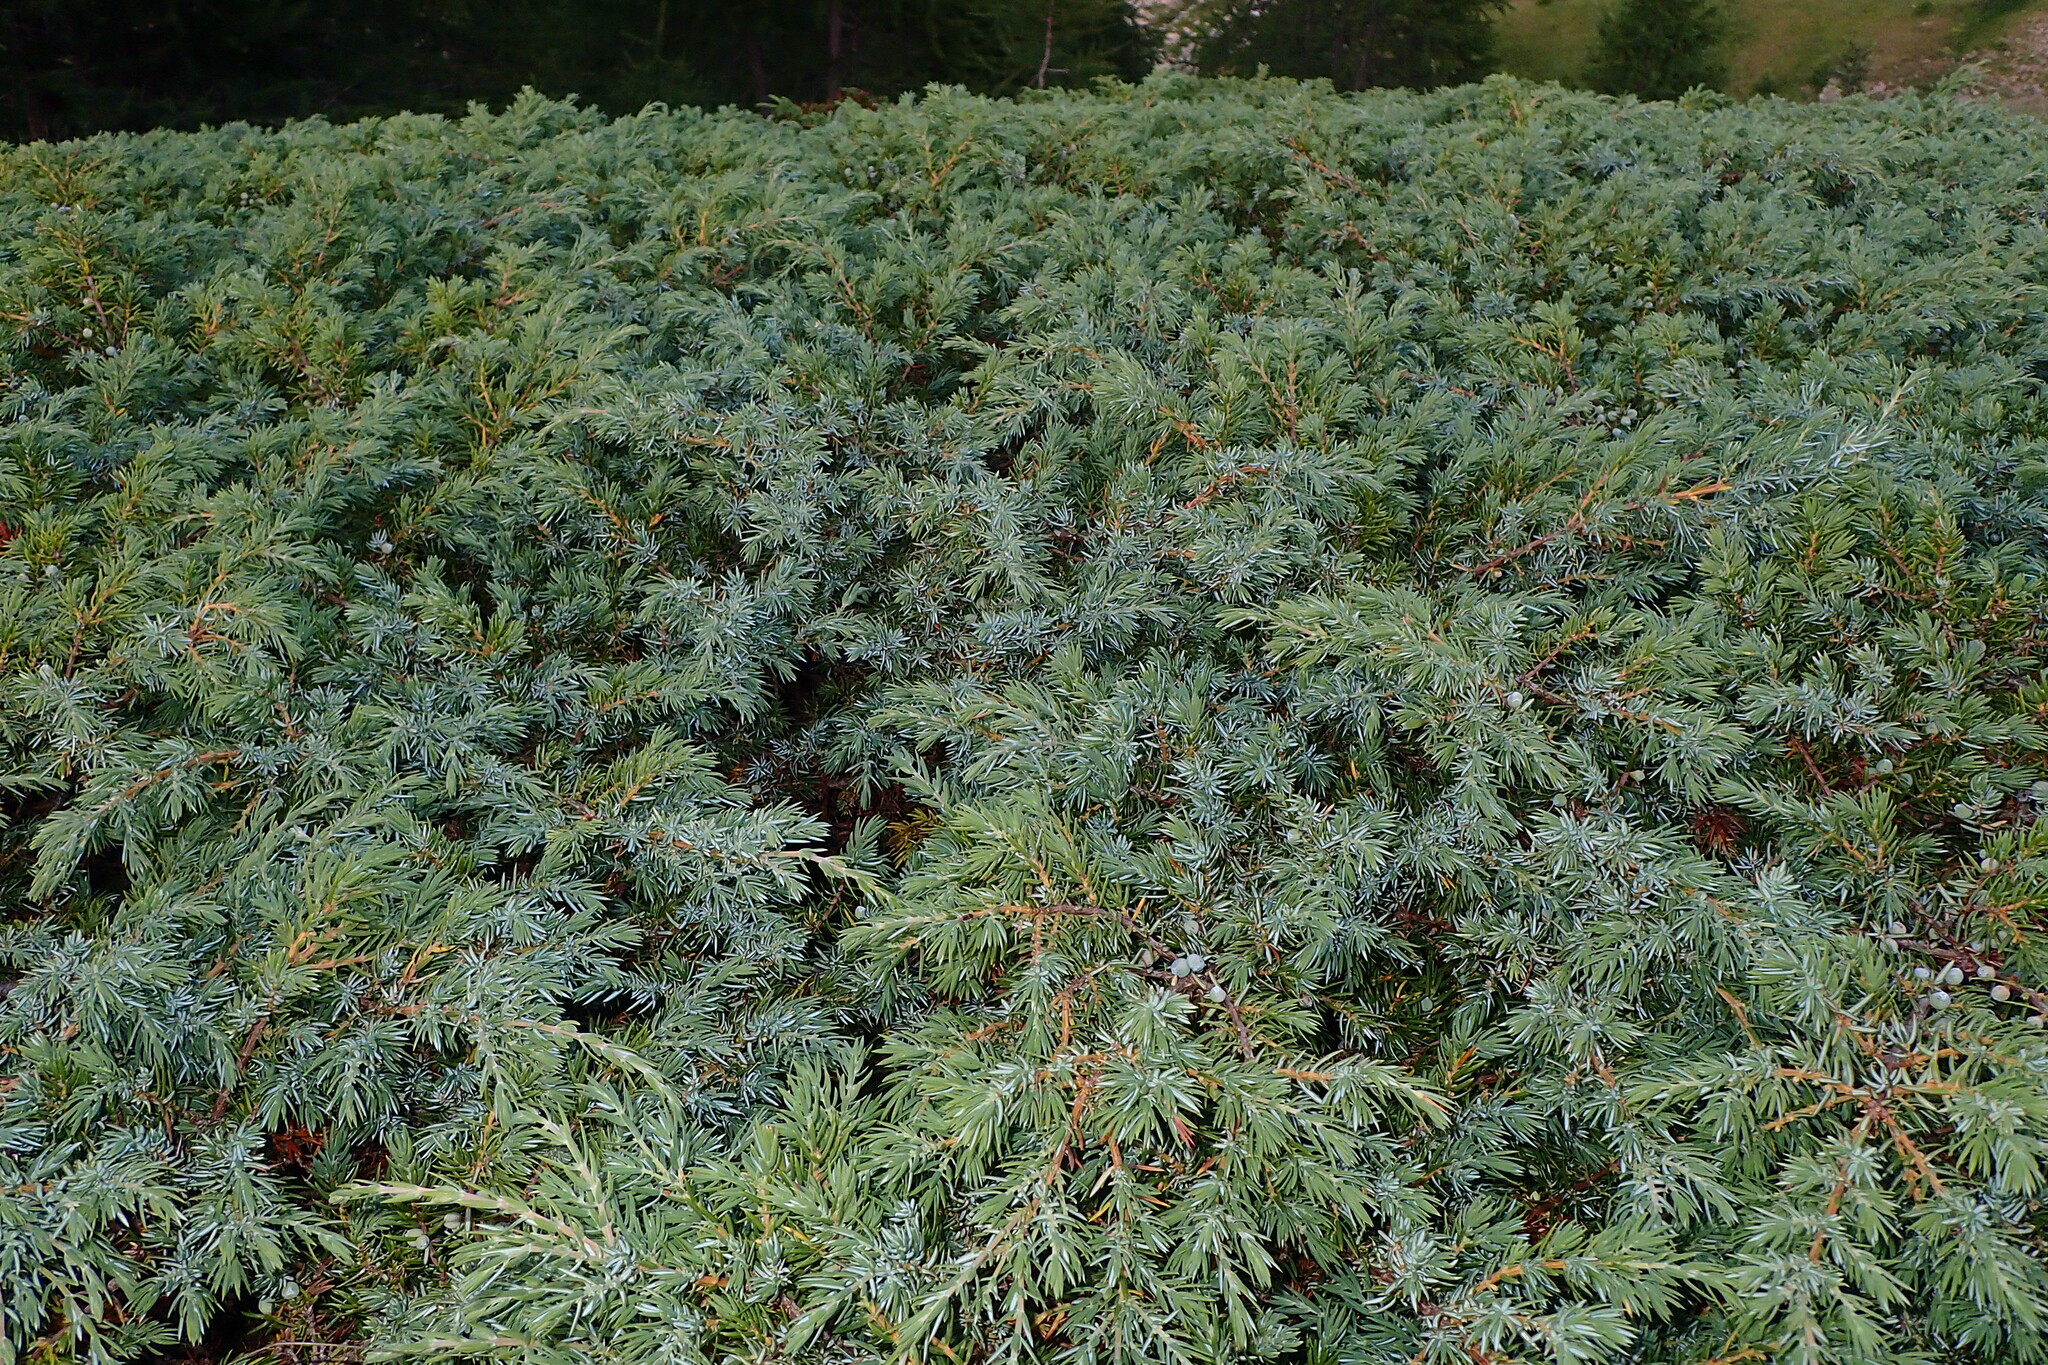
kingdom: Plantae
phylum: Tracheophyta
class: Pinopsida
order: Pinales
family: Cupressaceae
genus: Juniperus
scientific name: Juniperus communis
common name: Common juniper
